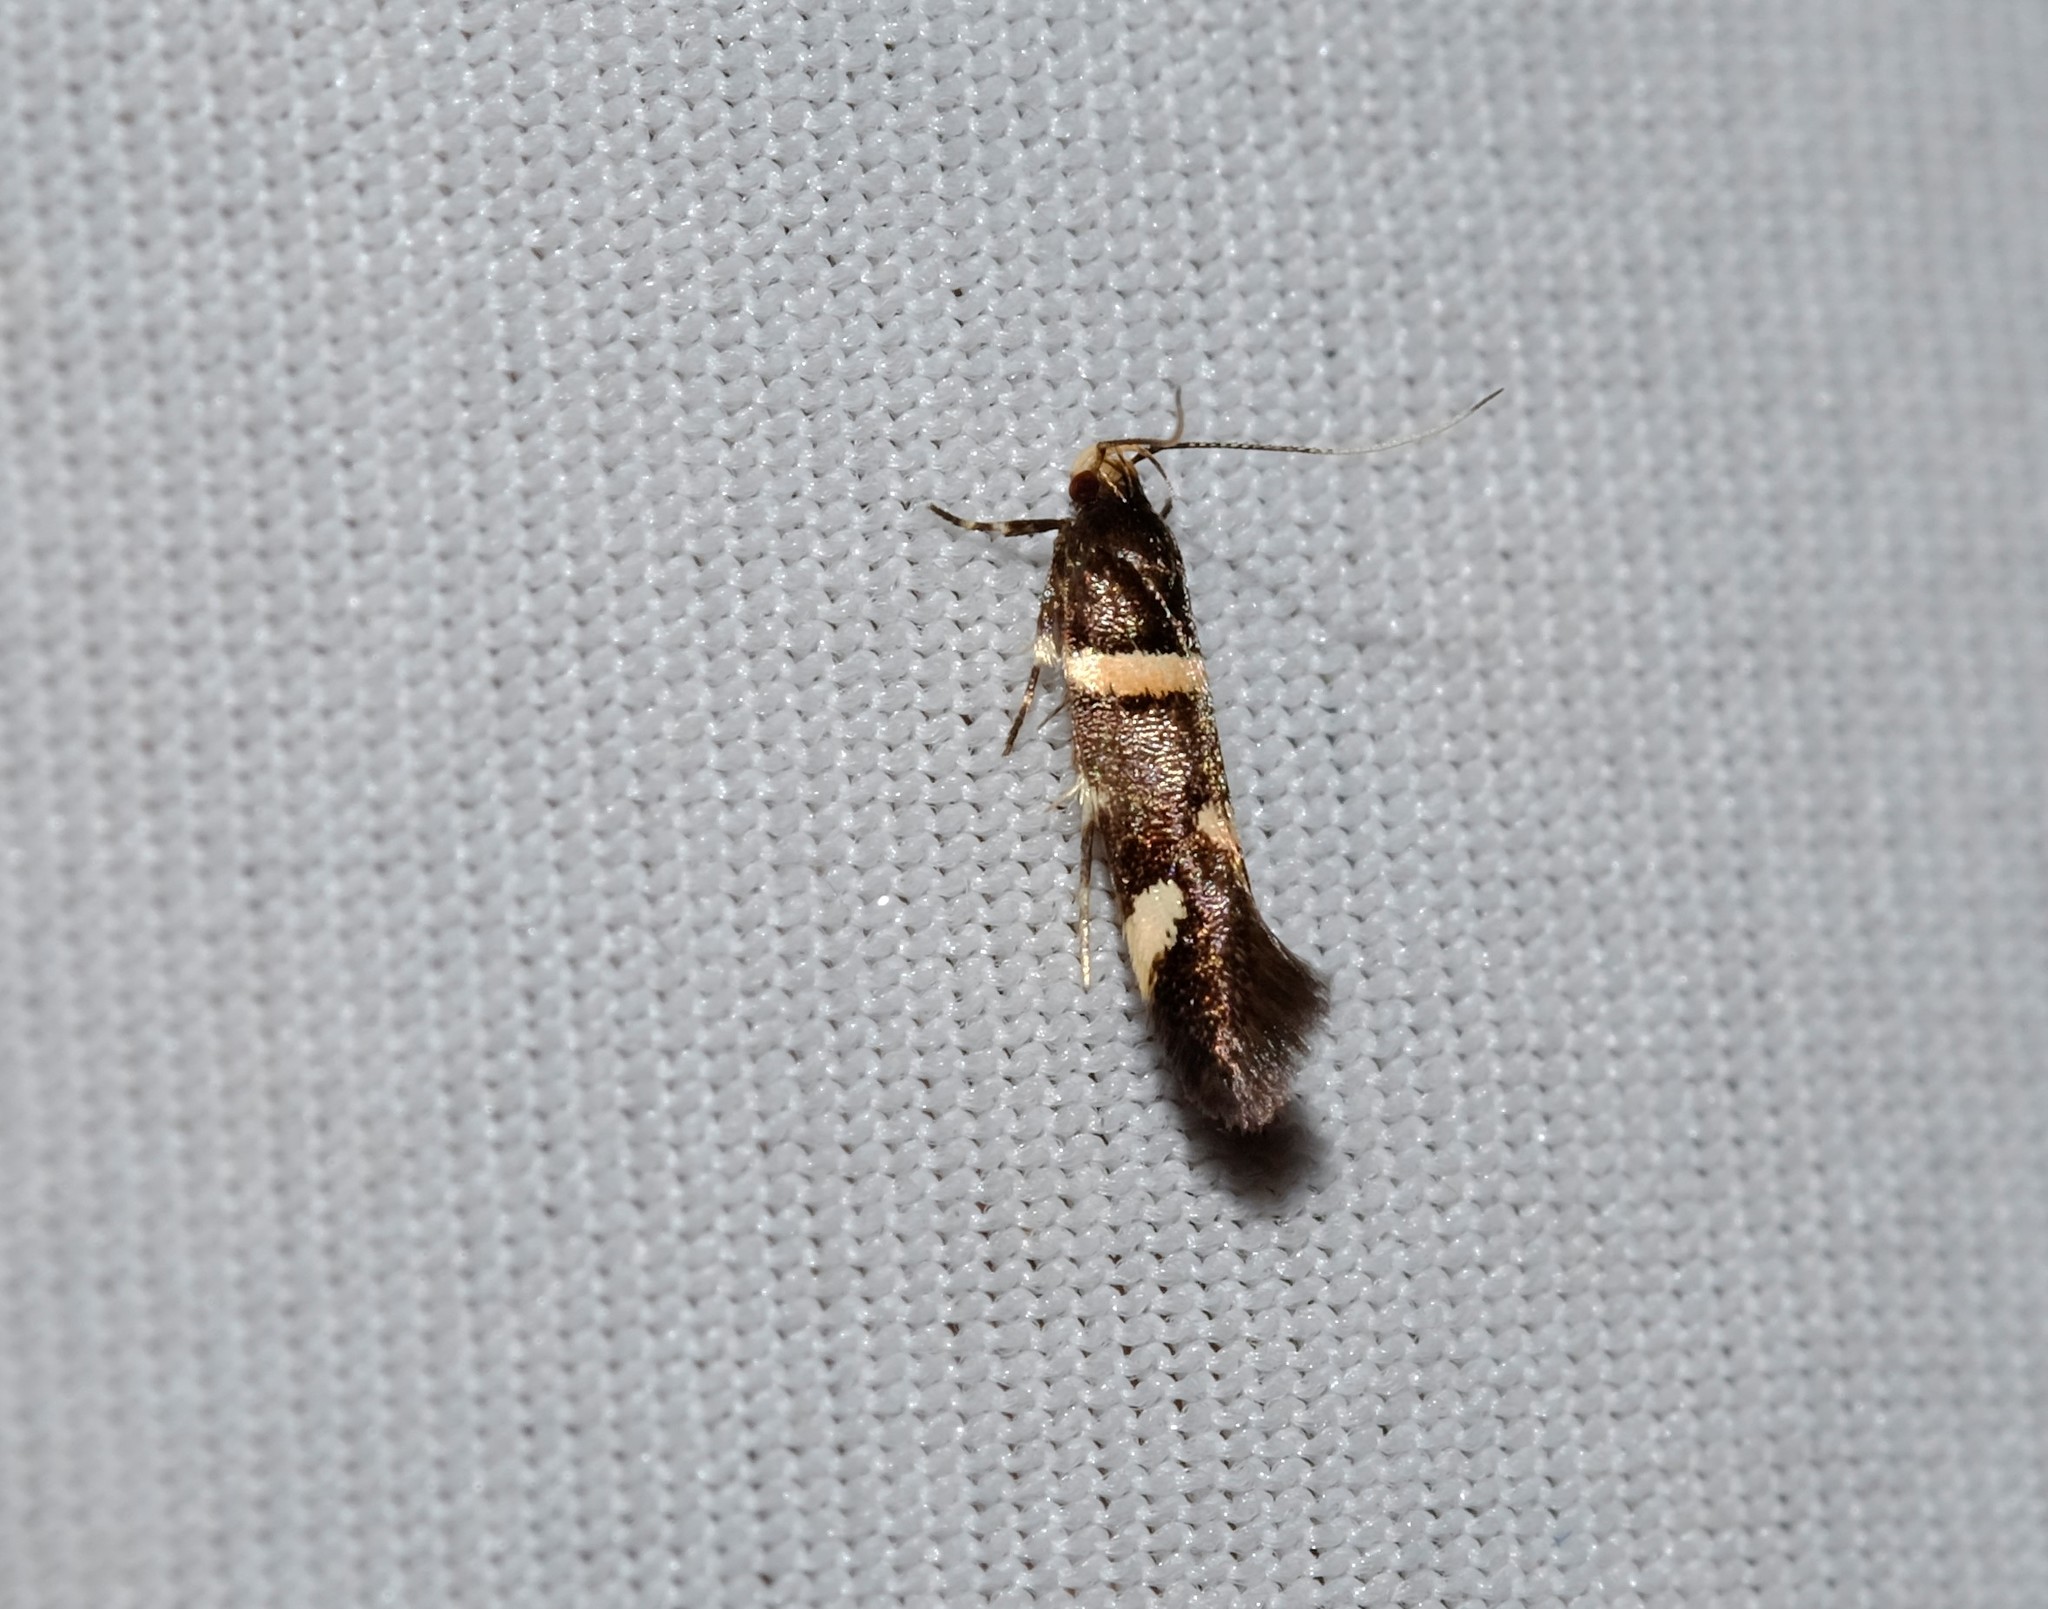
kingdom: Animalia
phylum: Arthropoda
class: Insecta
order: Lepidoptera
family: Cosmopterigidae
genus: Macrobathra
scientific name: Macrobathra alternatella
